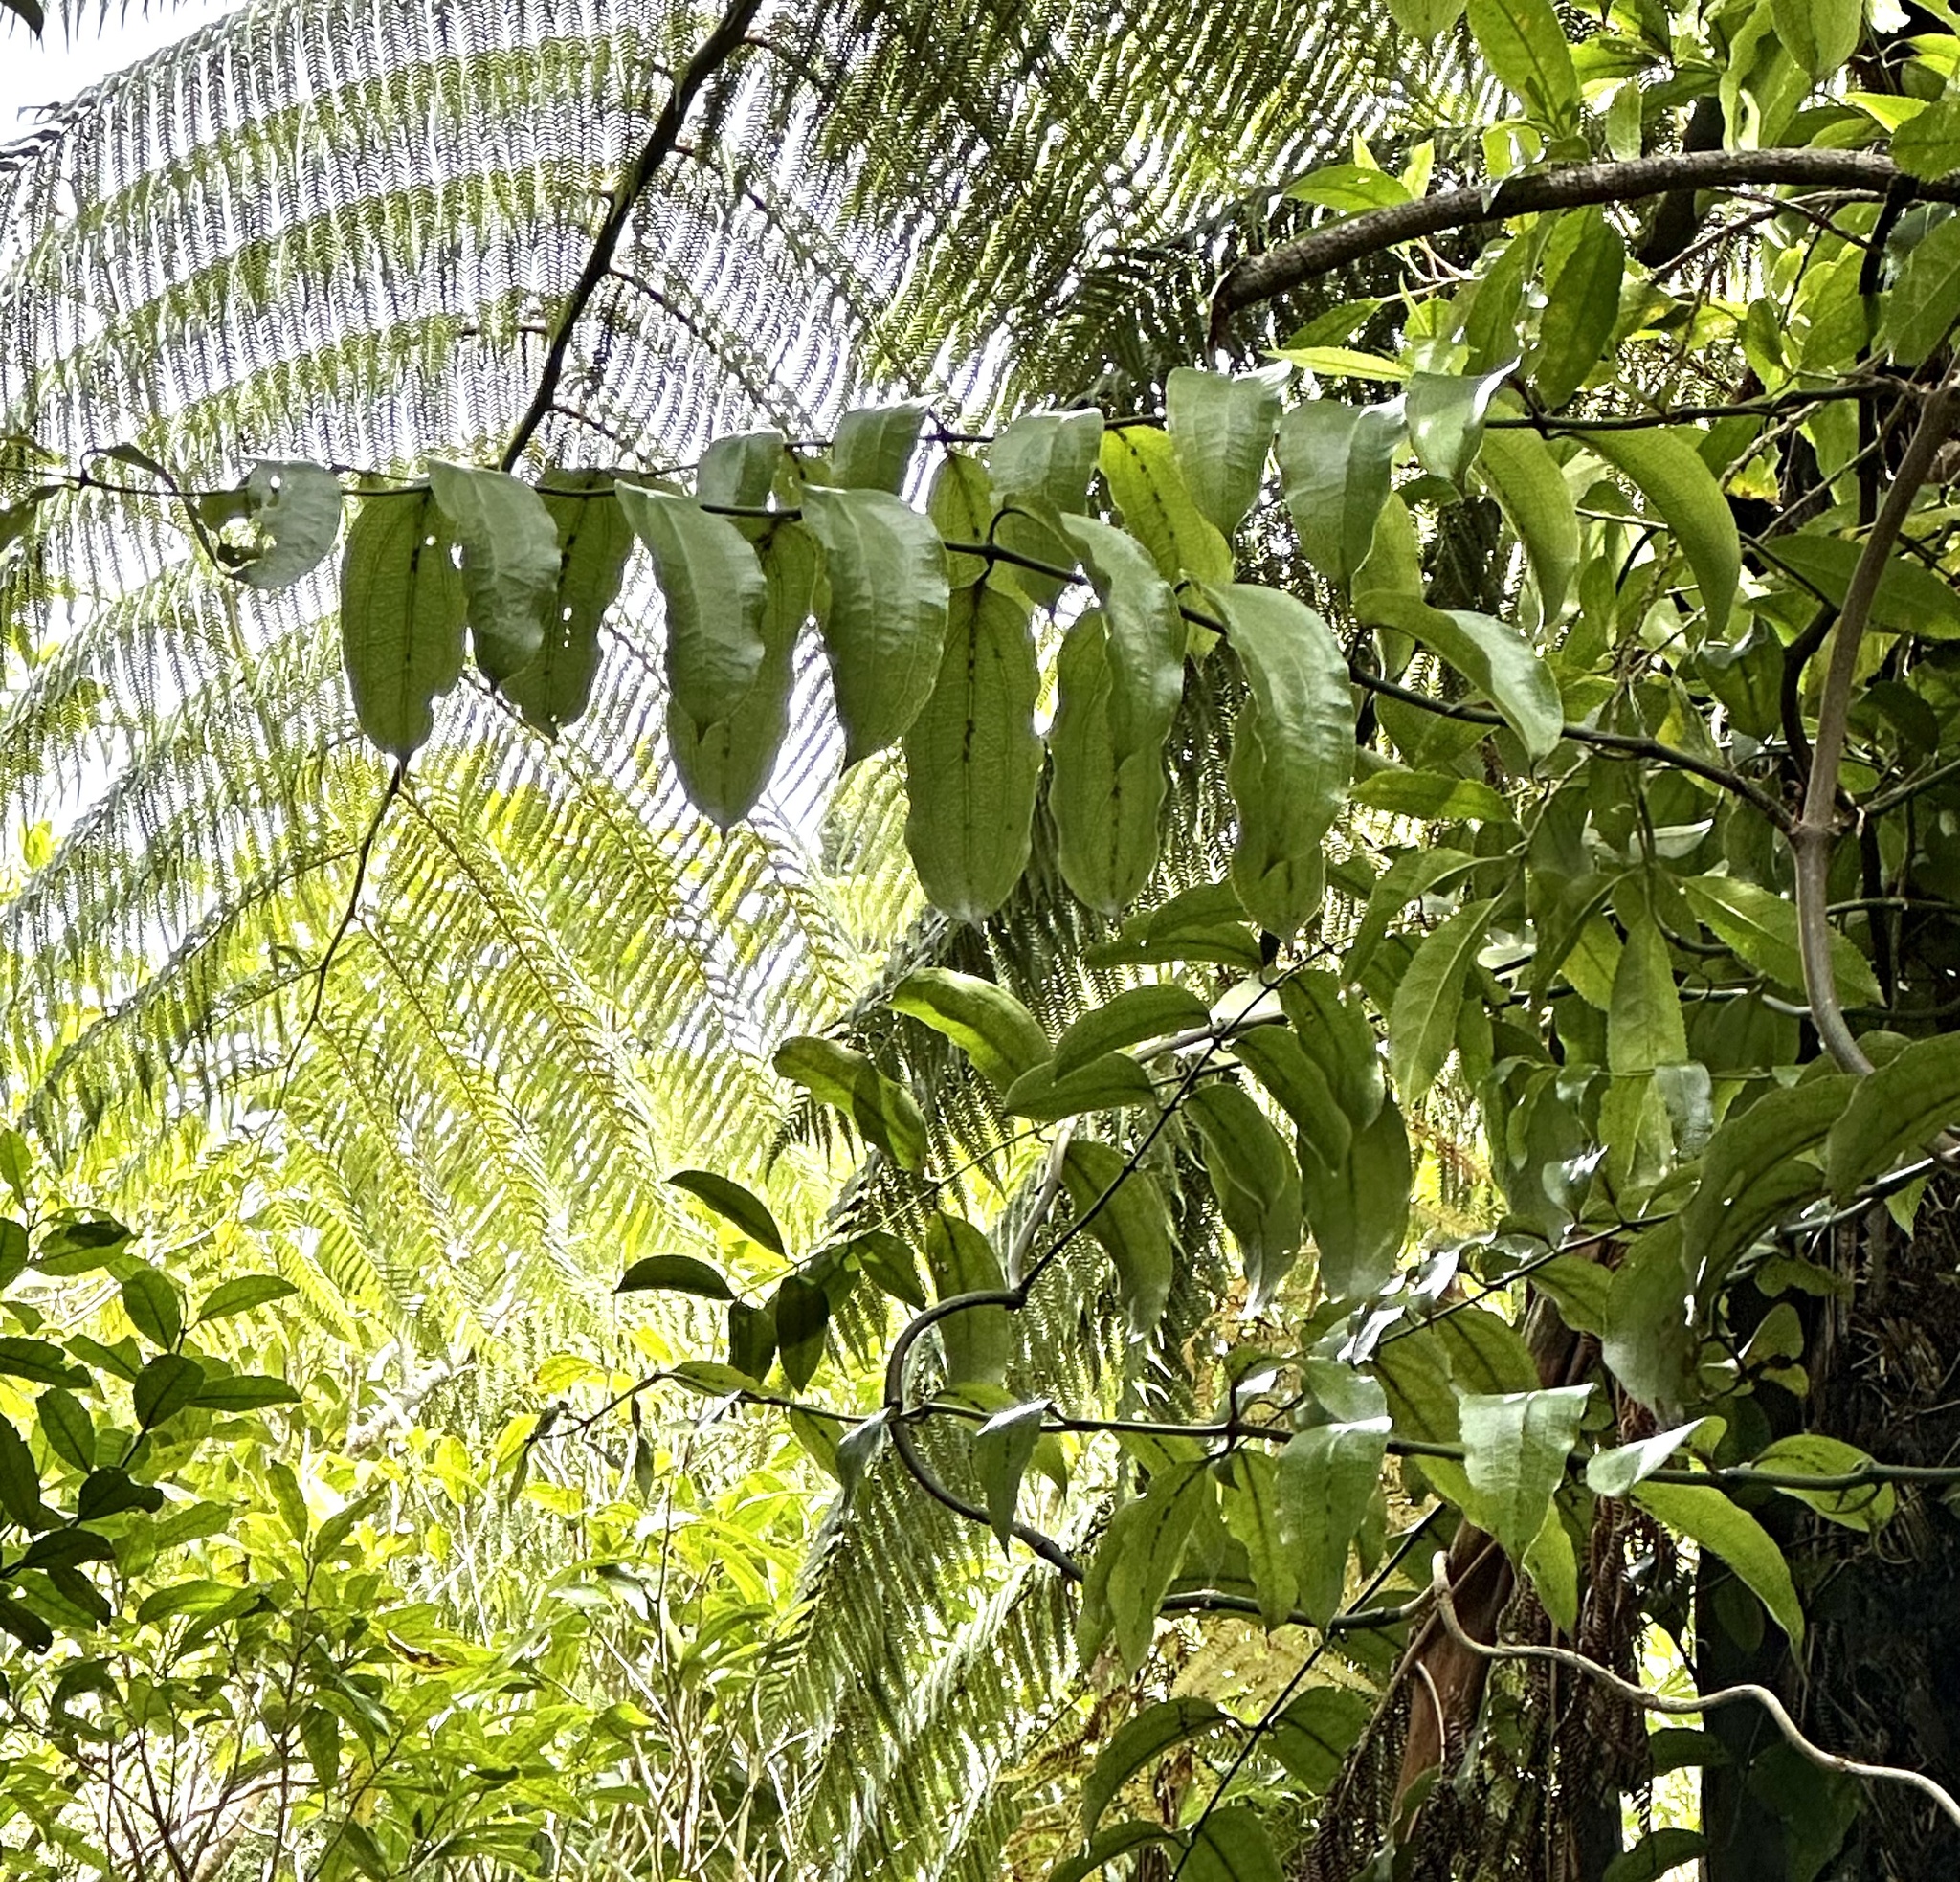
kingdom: Plantae
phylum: Tracheophyta
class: Liliopsida
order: Liliales
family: Ripogonaceae
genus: Ripogonum
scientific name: Ripogonum scandens
